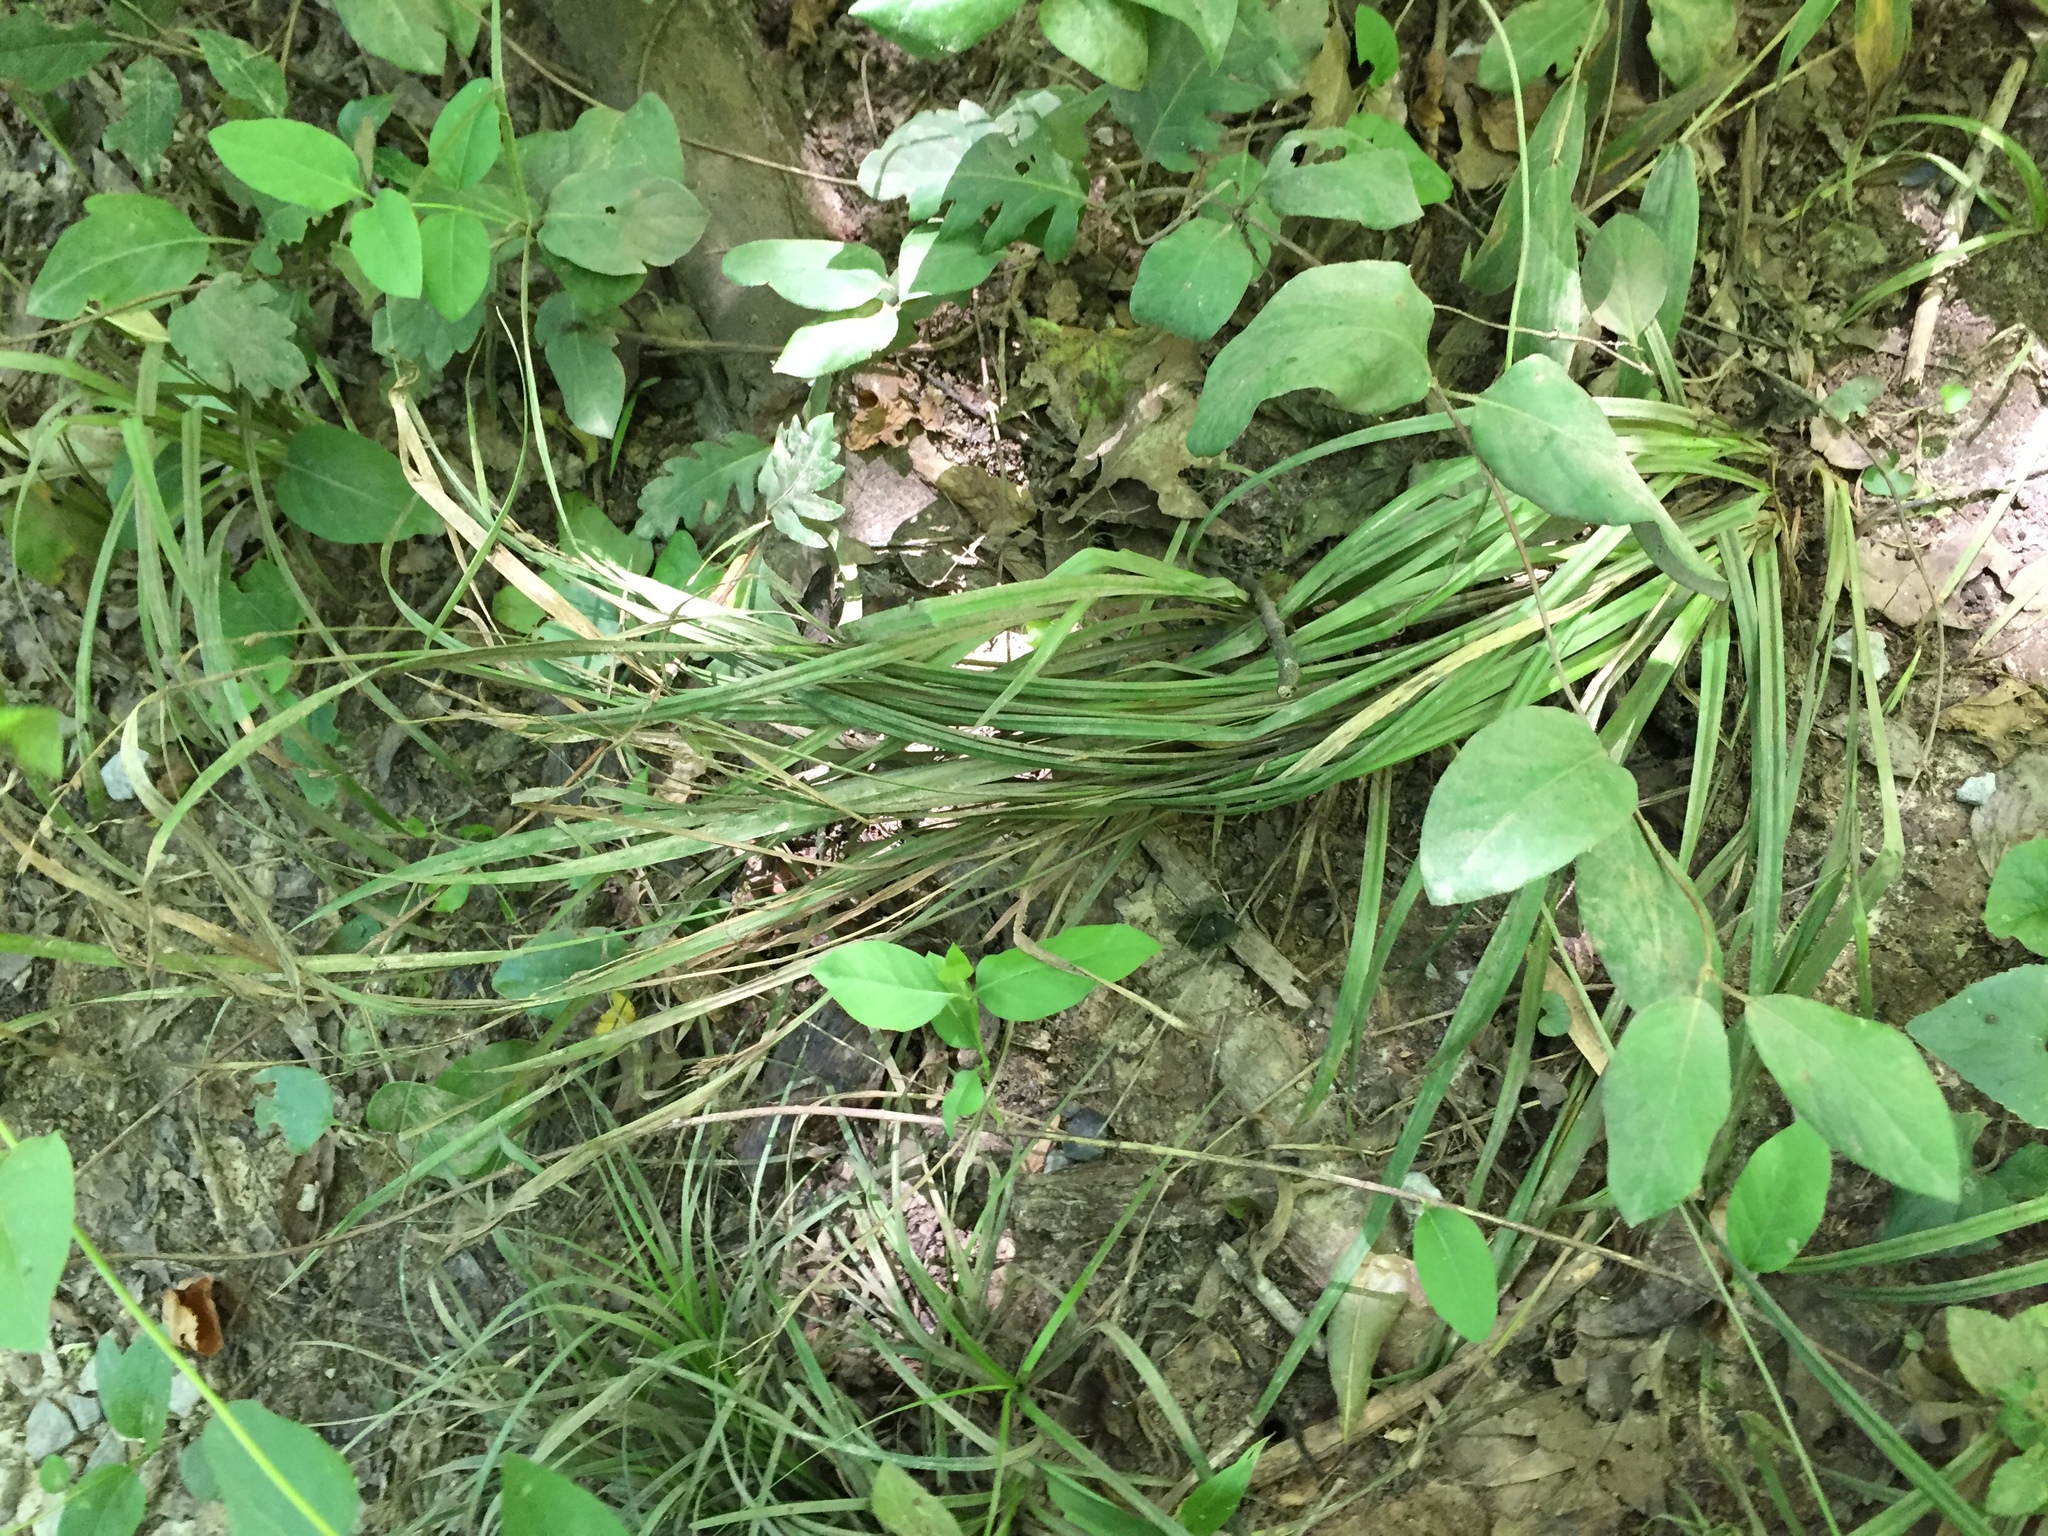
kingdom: Plantae
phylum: Tracheophyta
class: Liliopsida
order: Poales
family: Cyperaceae
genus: Carex
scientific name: Carex corrugata
